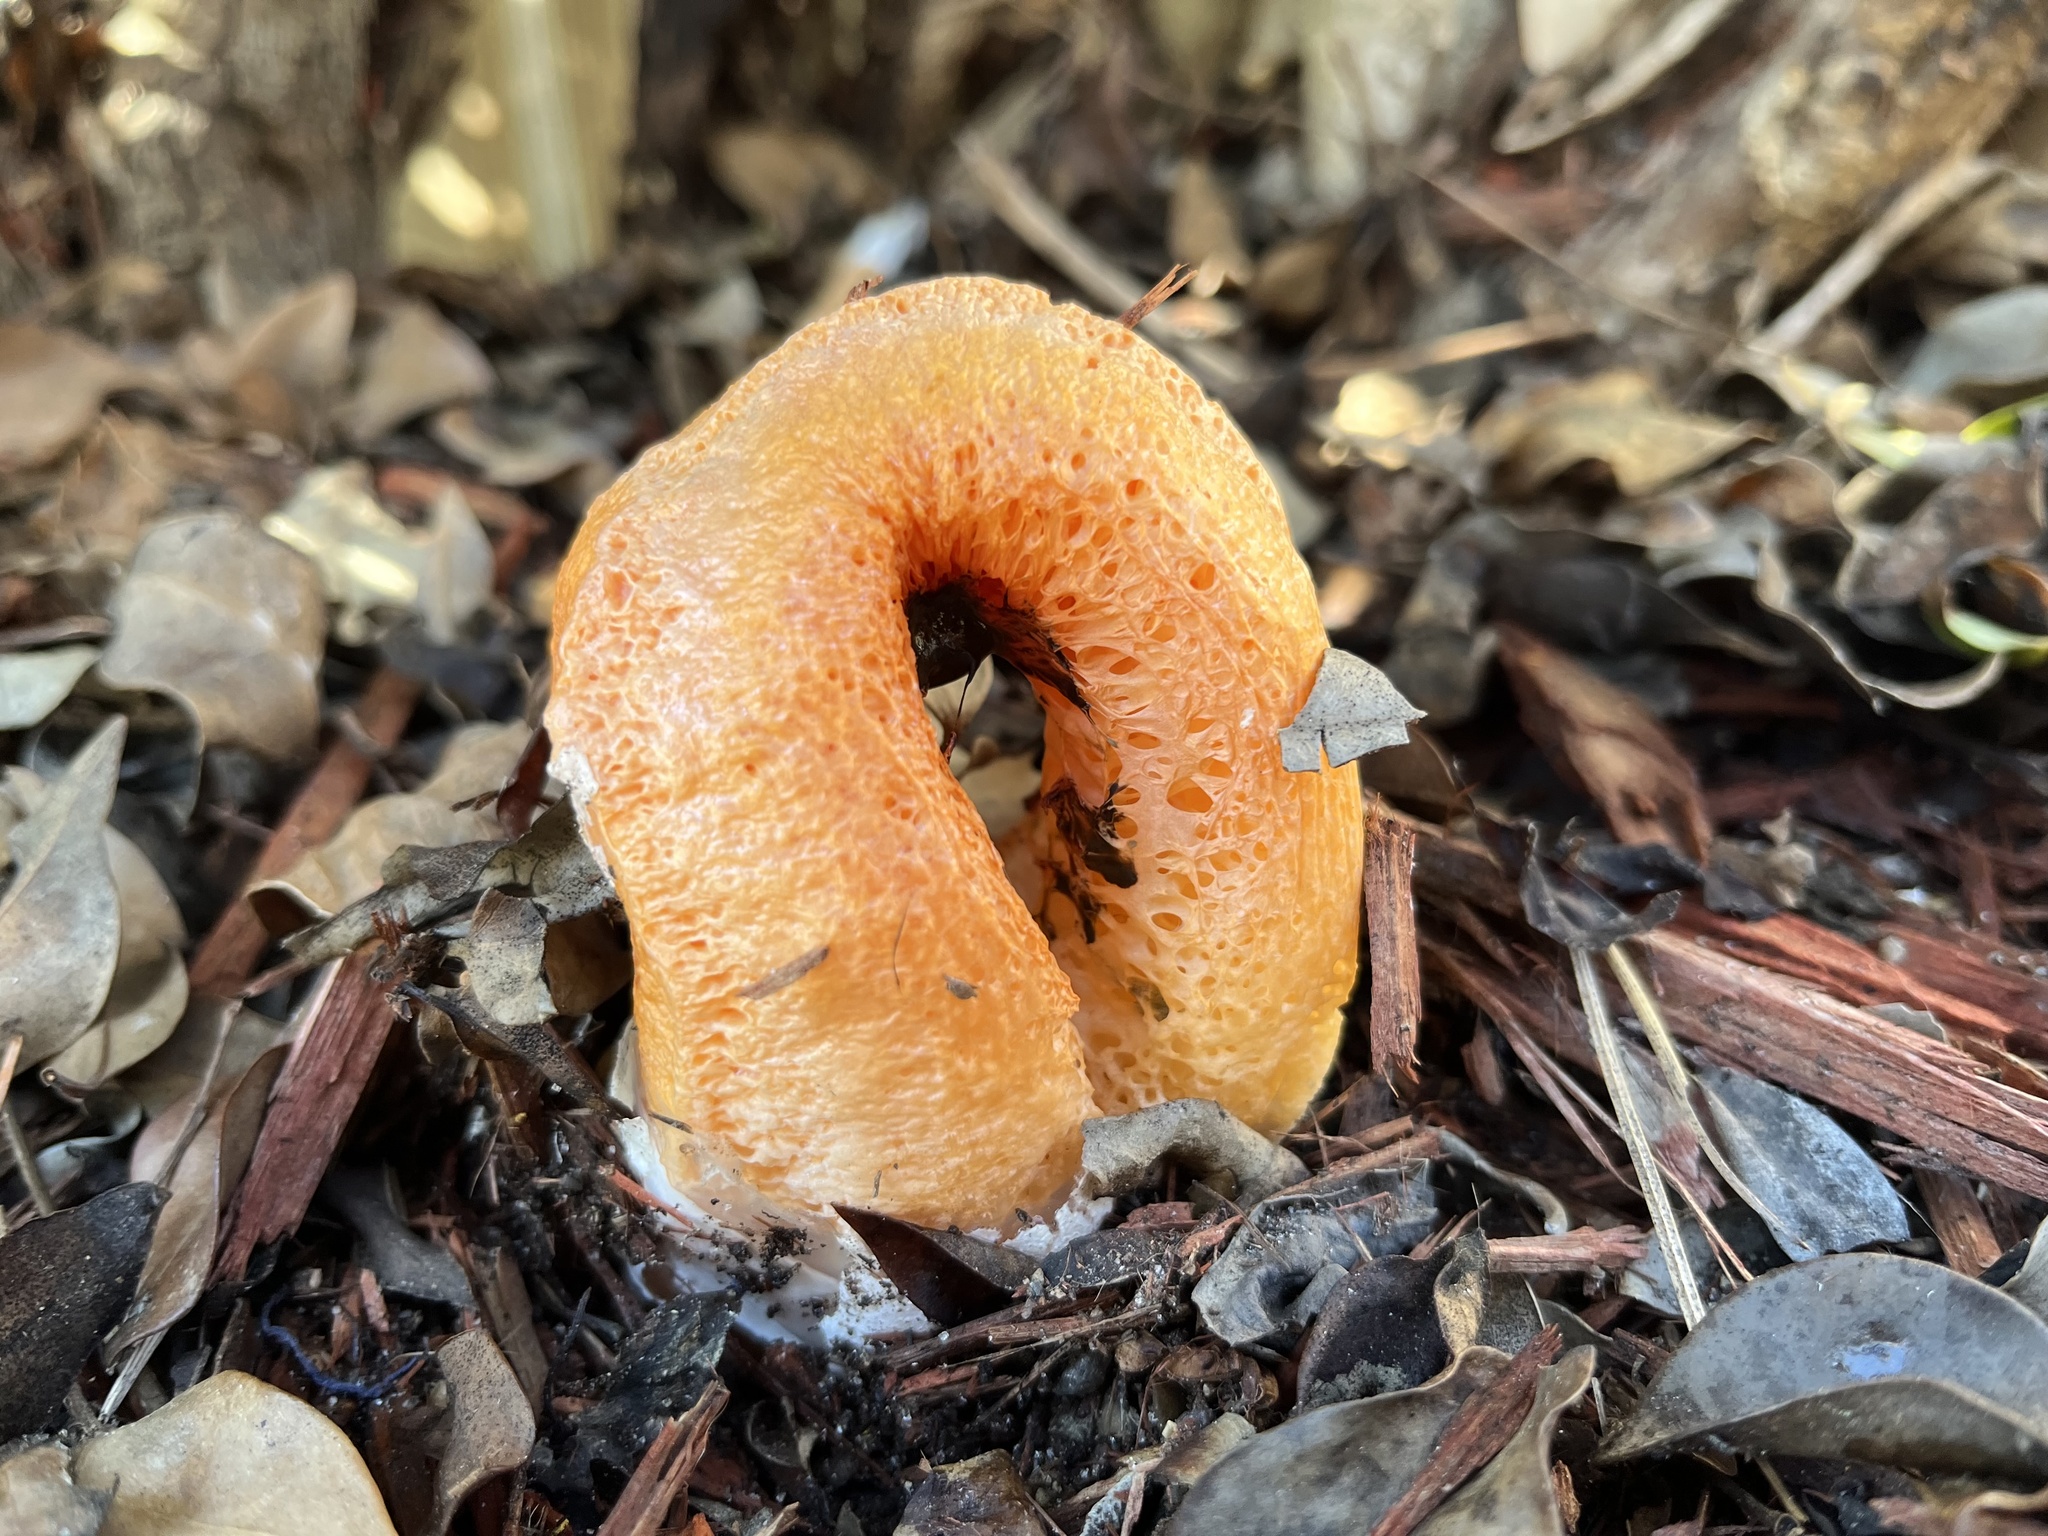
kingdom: Fungi
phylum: Basidiomycota
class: Agaricomycetes
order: Phallales
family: Phallaceae
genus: Clathrus
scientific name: Clathrus columnatus
